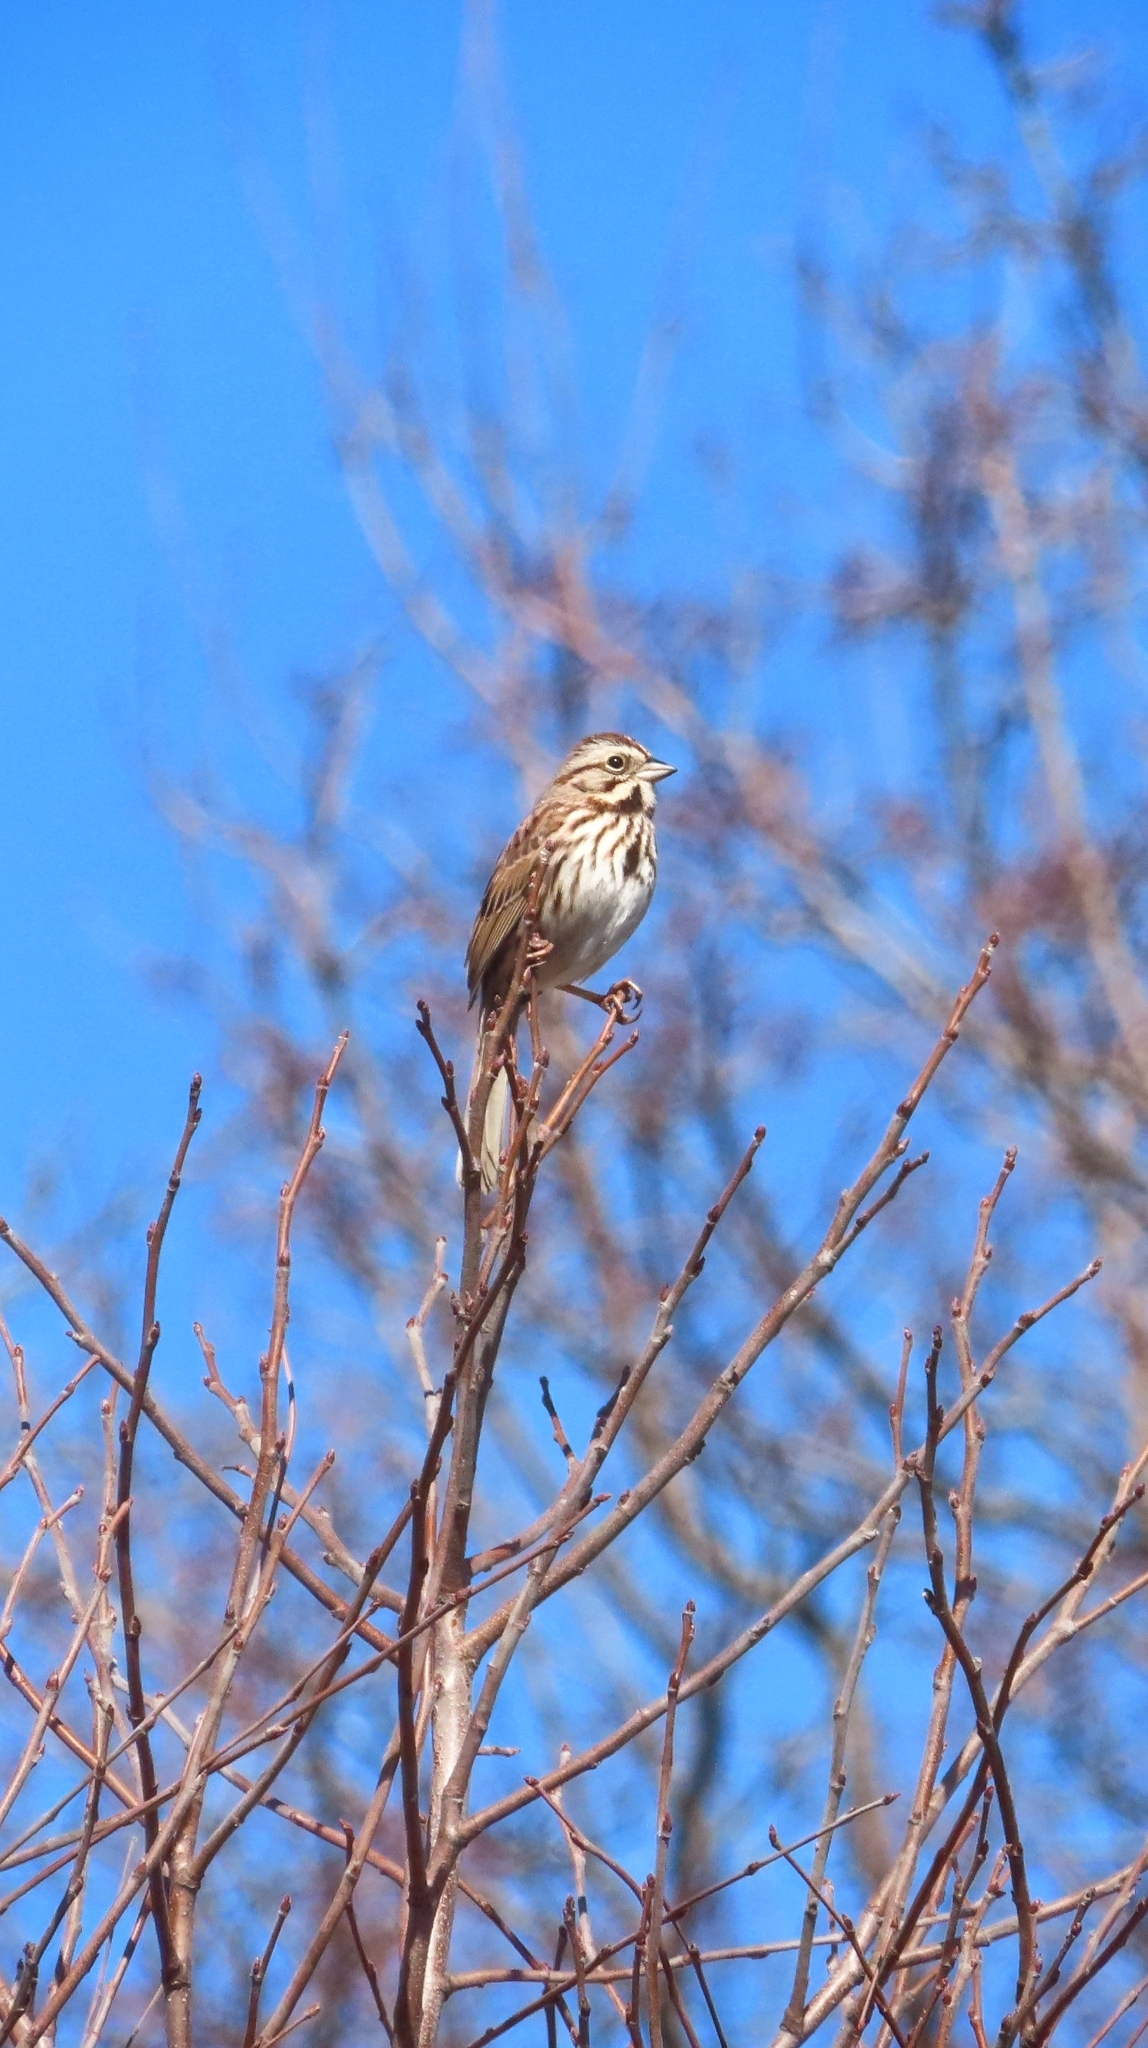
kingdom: Animalia
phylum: Chordata
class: Aves
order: Passeriformes
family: Passerellidae
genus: Melospiza
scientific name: Melospiza melodia
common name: Song sparrow
